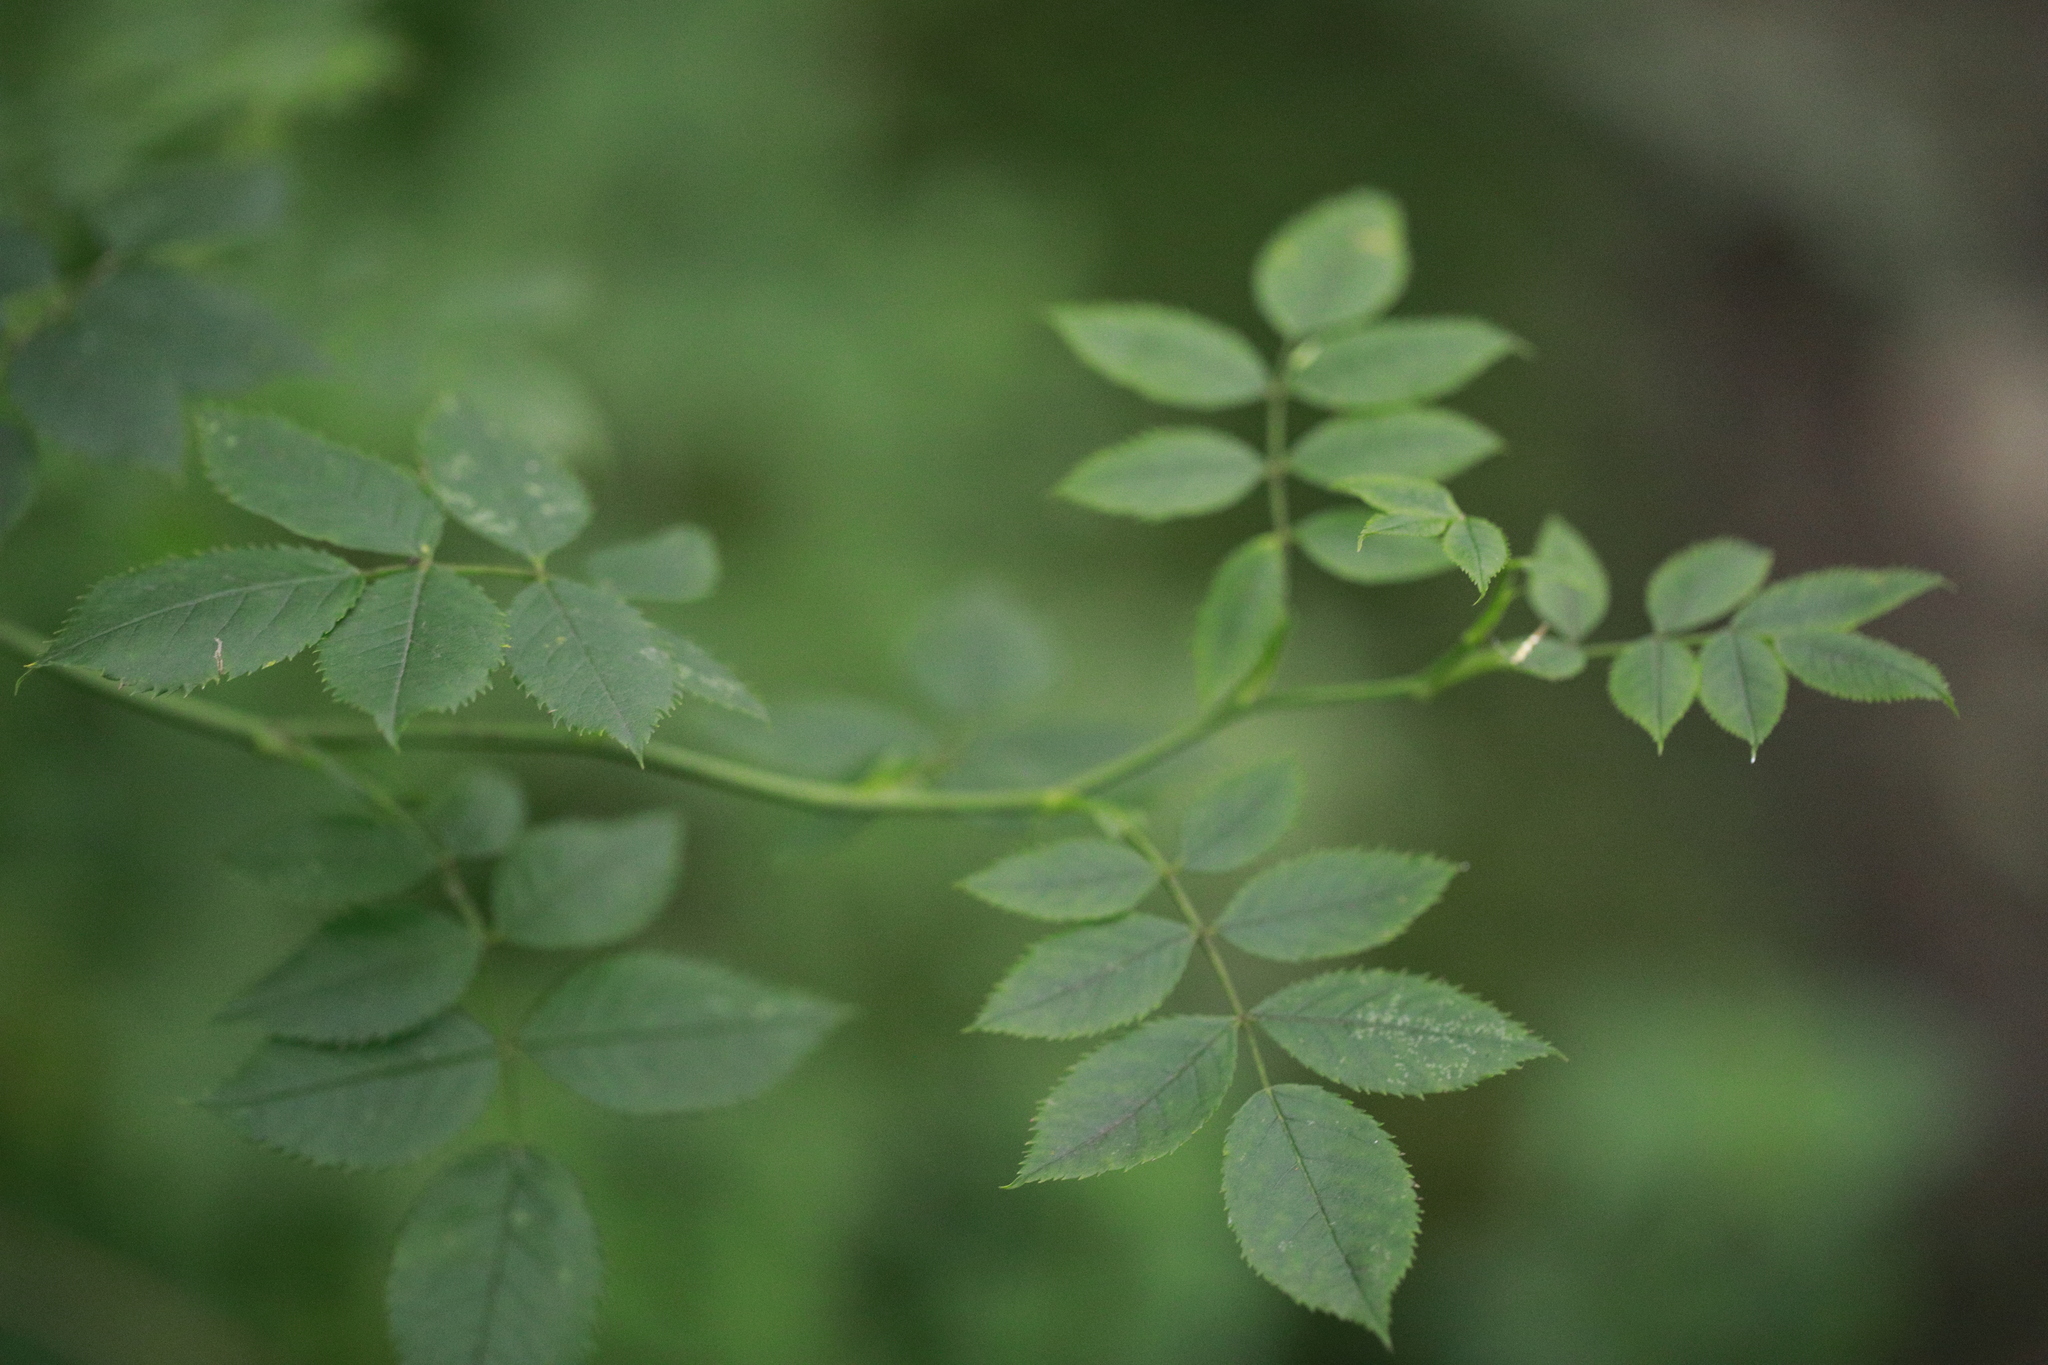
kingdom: Plantae
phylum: Tracheophyta
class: Magnoliopsida
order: Rosales
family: Rosaceae
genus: Rosa
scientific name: Rosa canina
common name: Dog rose
